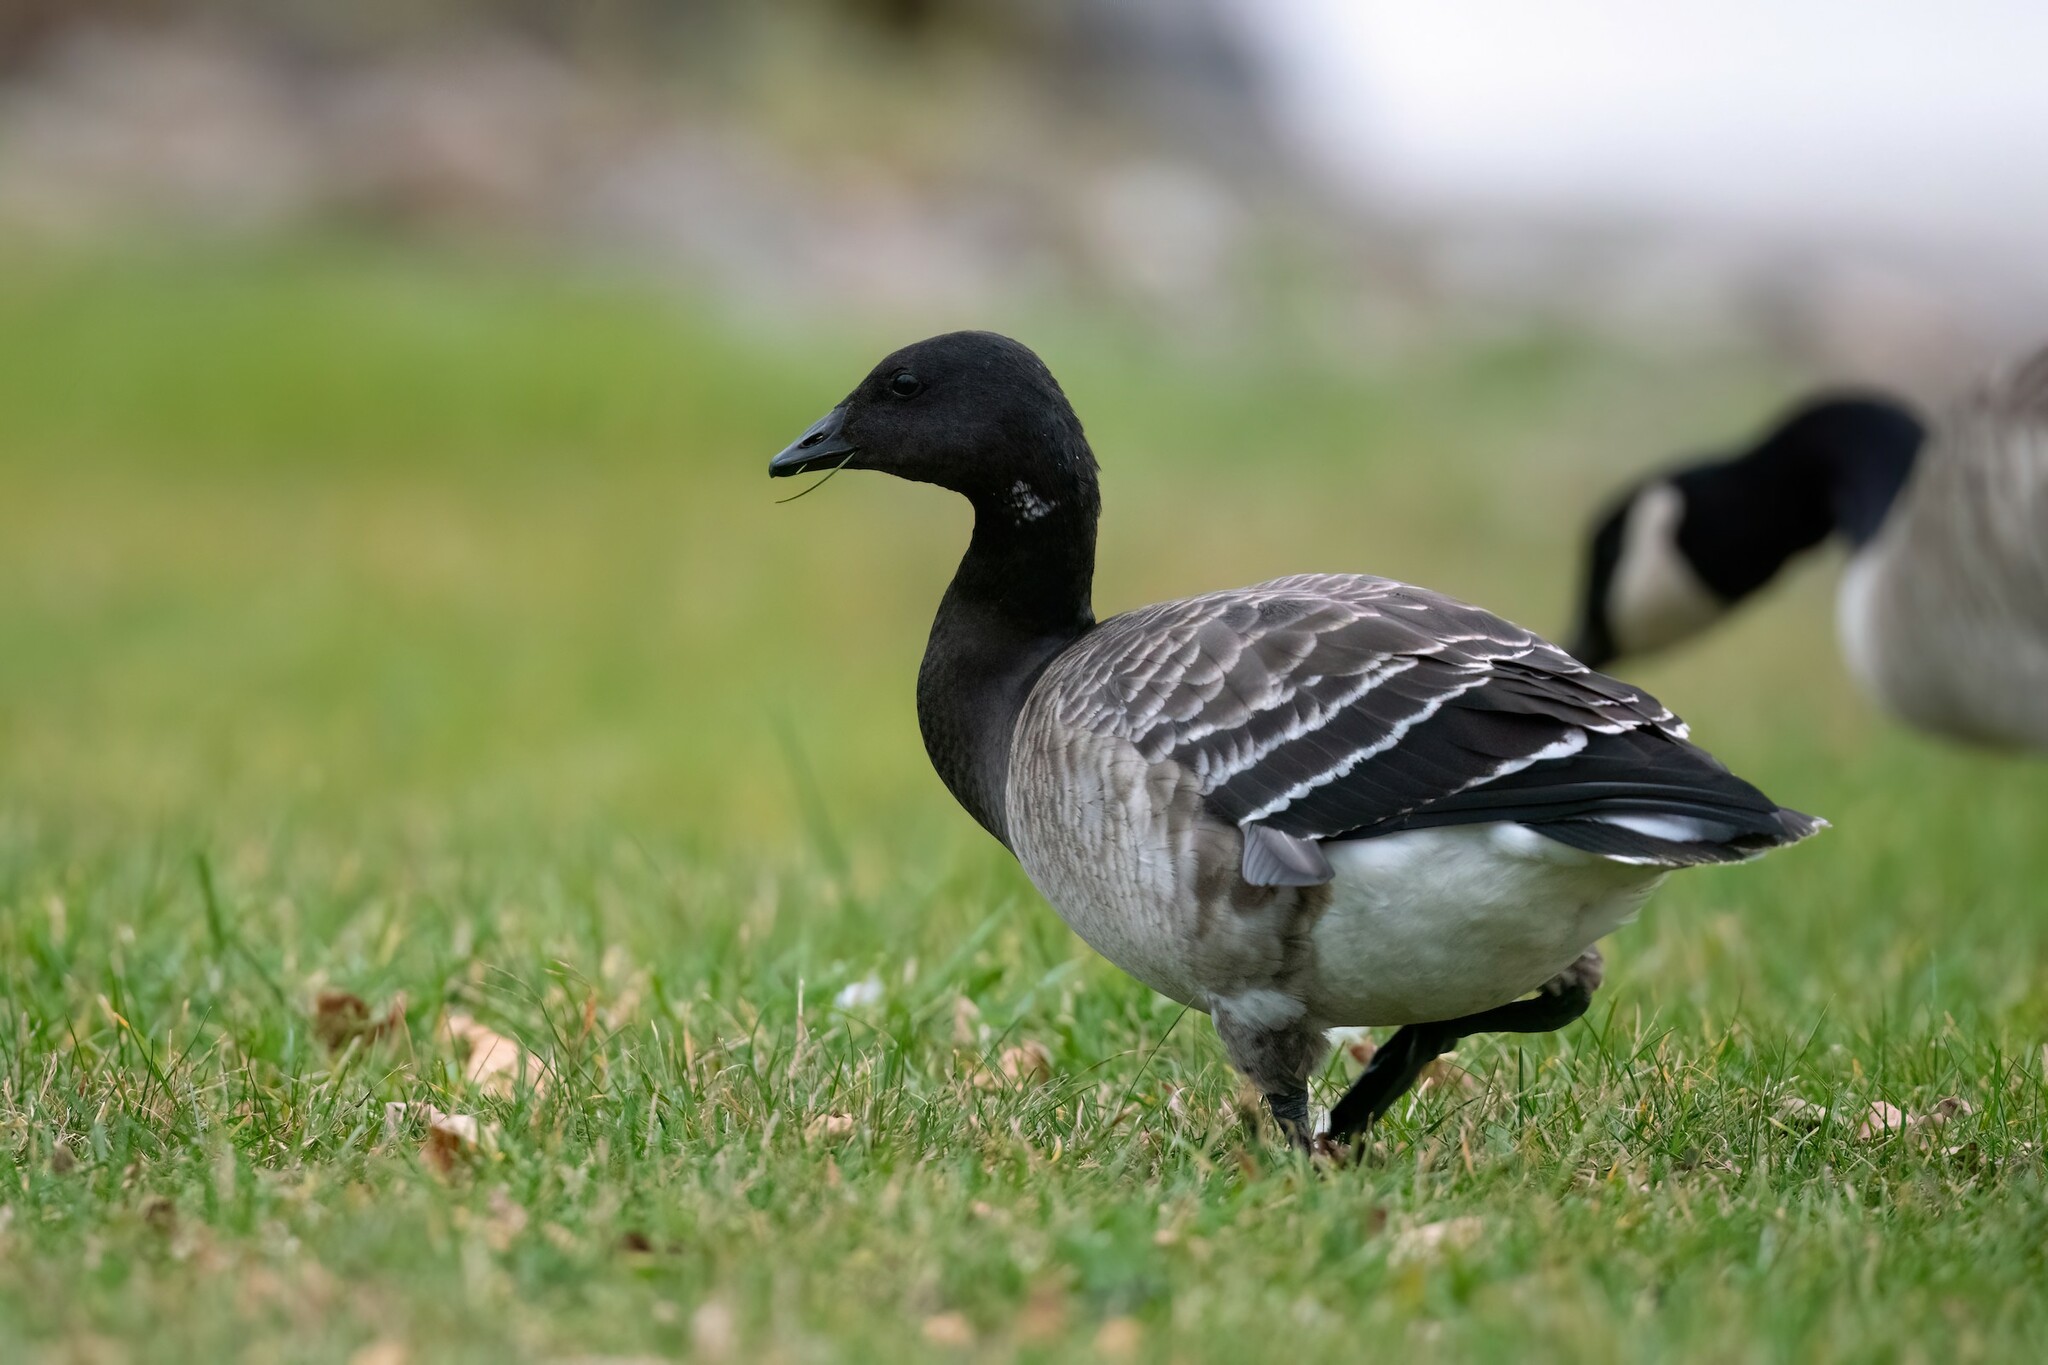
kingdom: Animalia
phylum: Chordata
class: Aves
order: Anseriformes
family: Anatidae
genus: Branta
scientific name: Branta bernicla
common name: Brant goose
